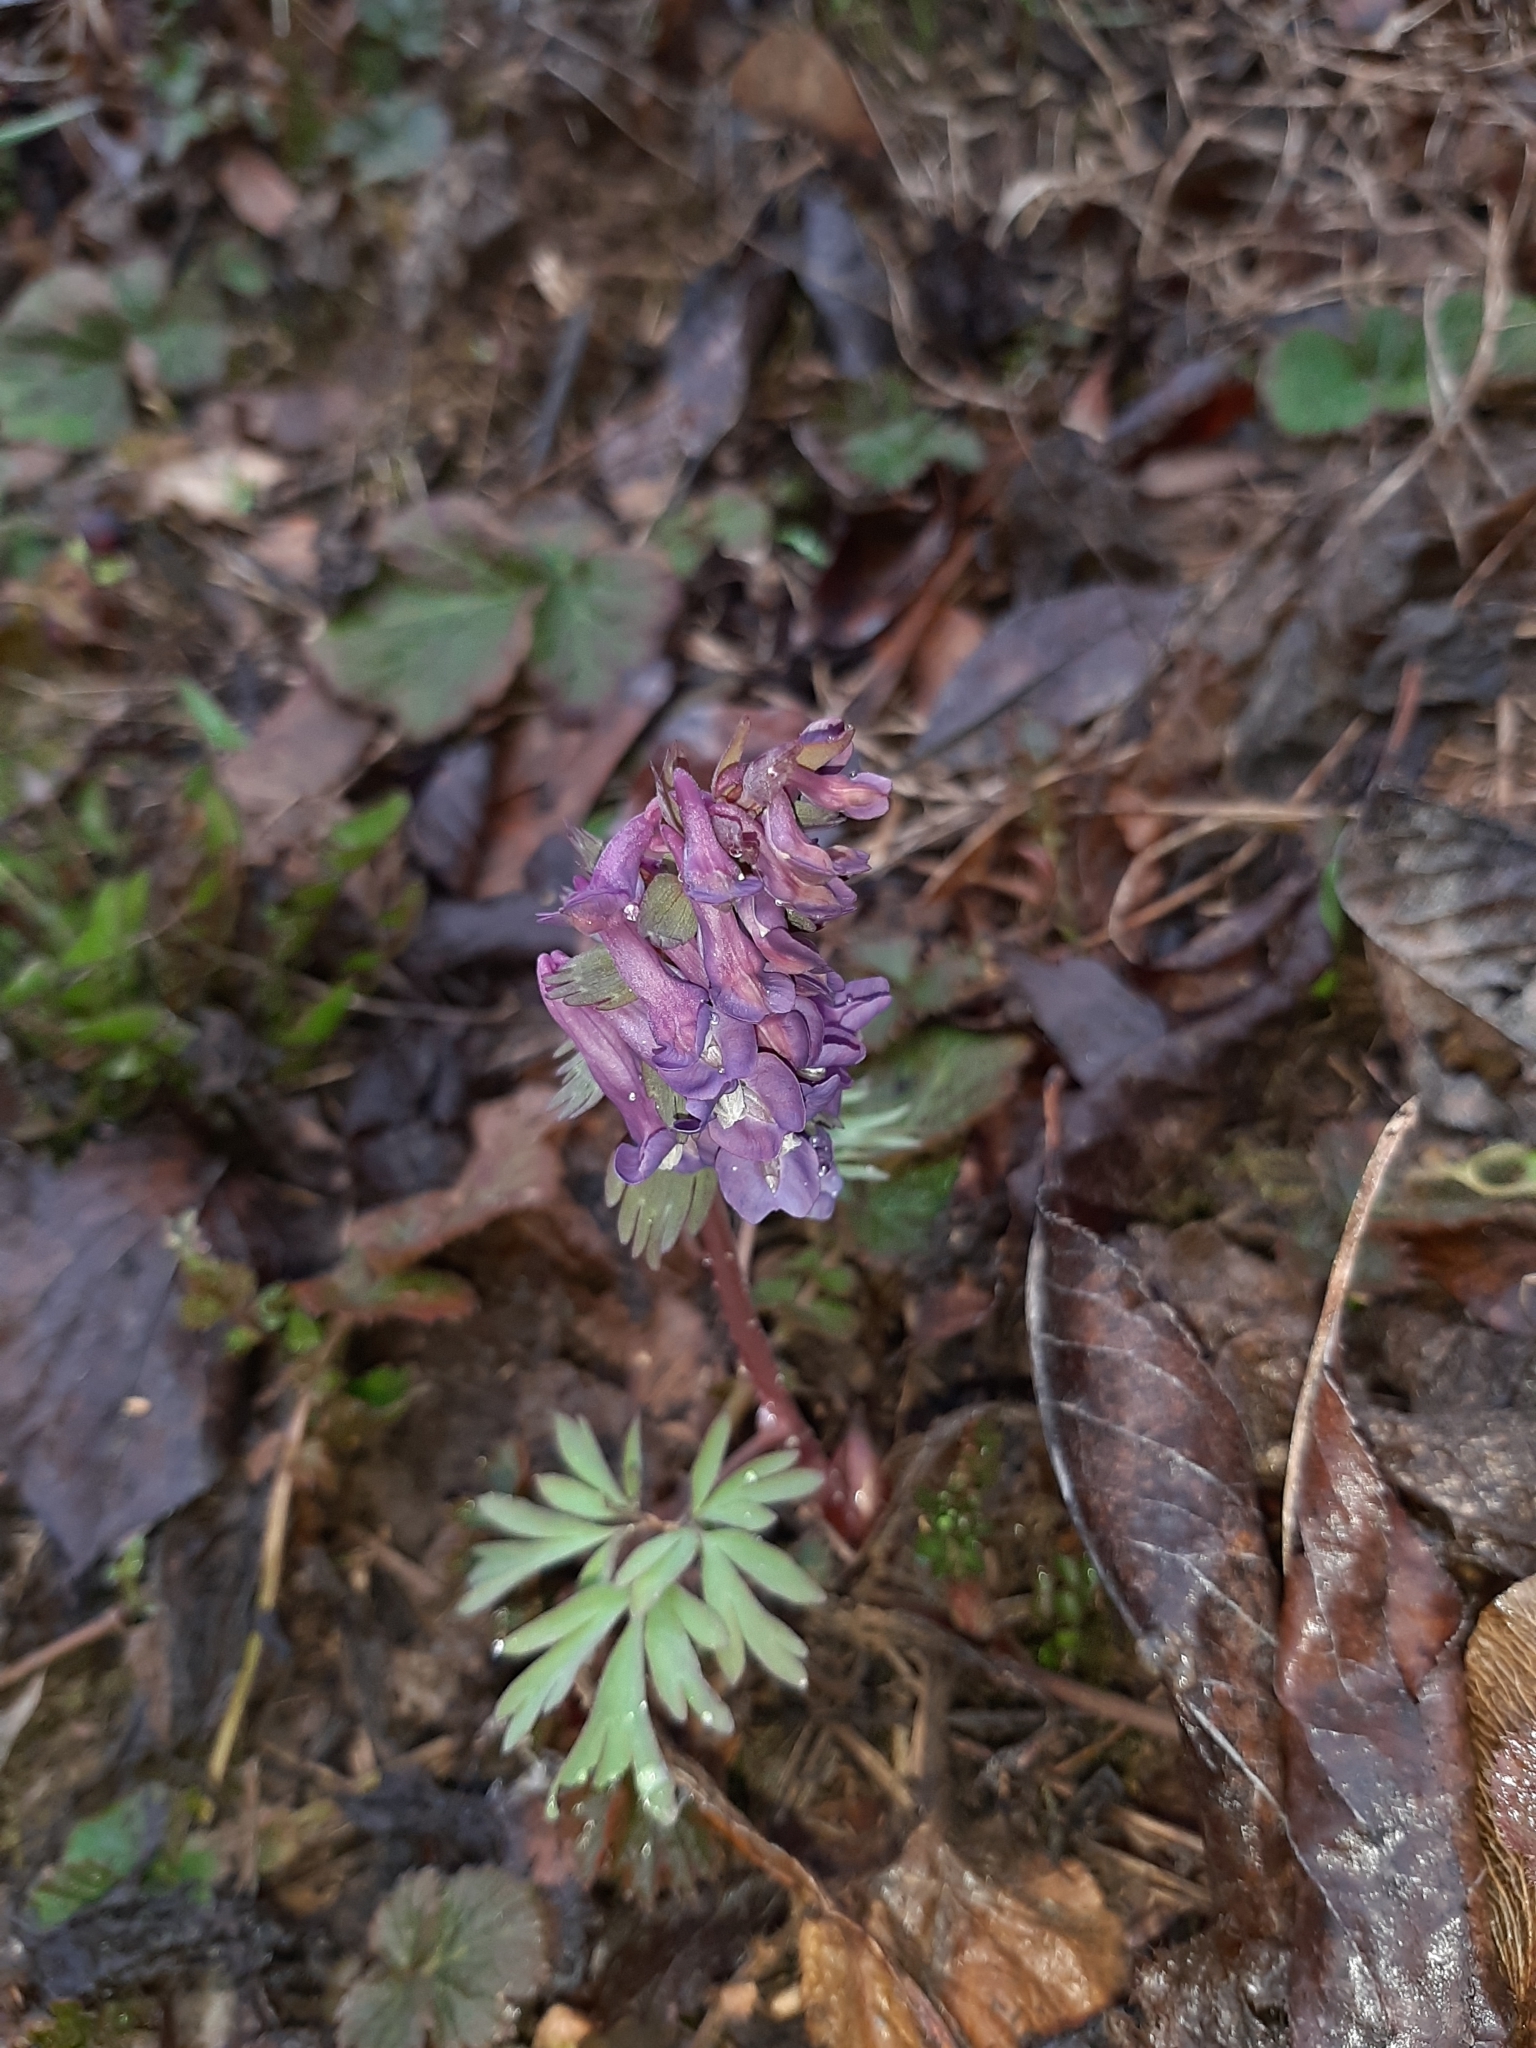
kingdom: Plantae
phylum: Tracheophyta
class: Magnoliopsida
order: Ranunculales
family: Papaveraceae
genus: Corydalis
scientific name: Corydalis solida
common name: Bird-in-a-bush
